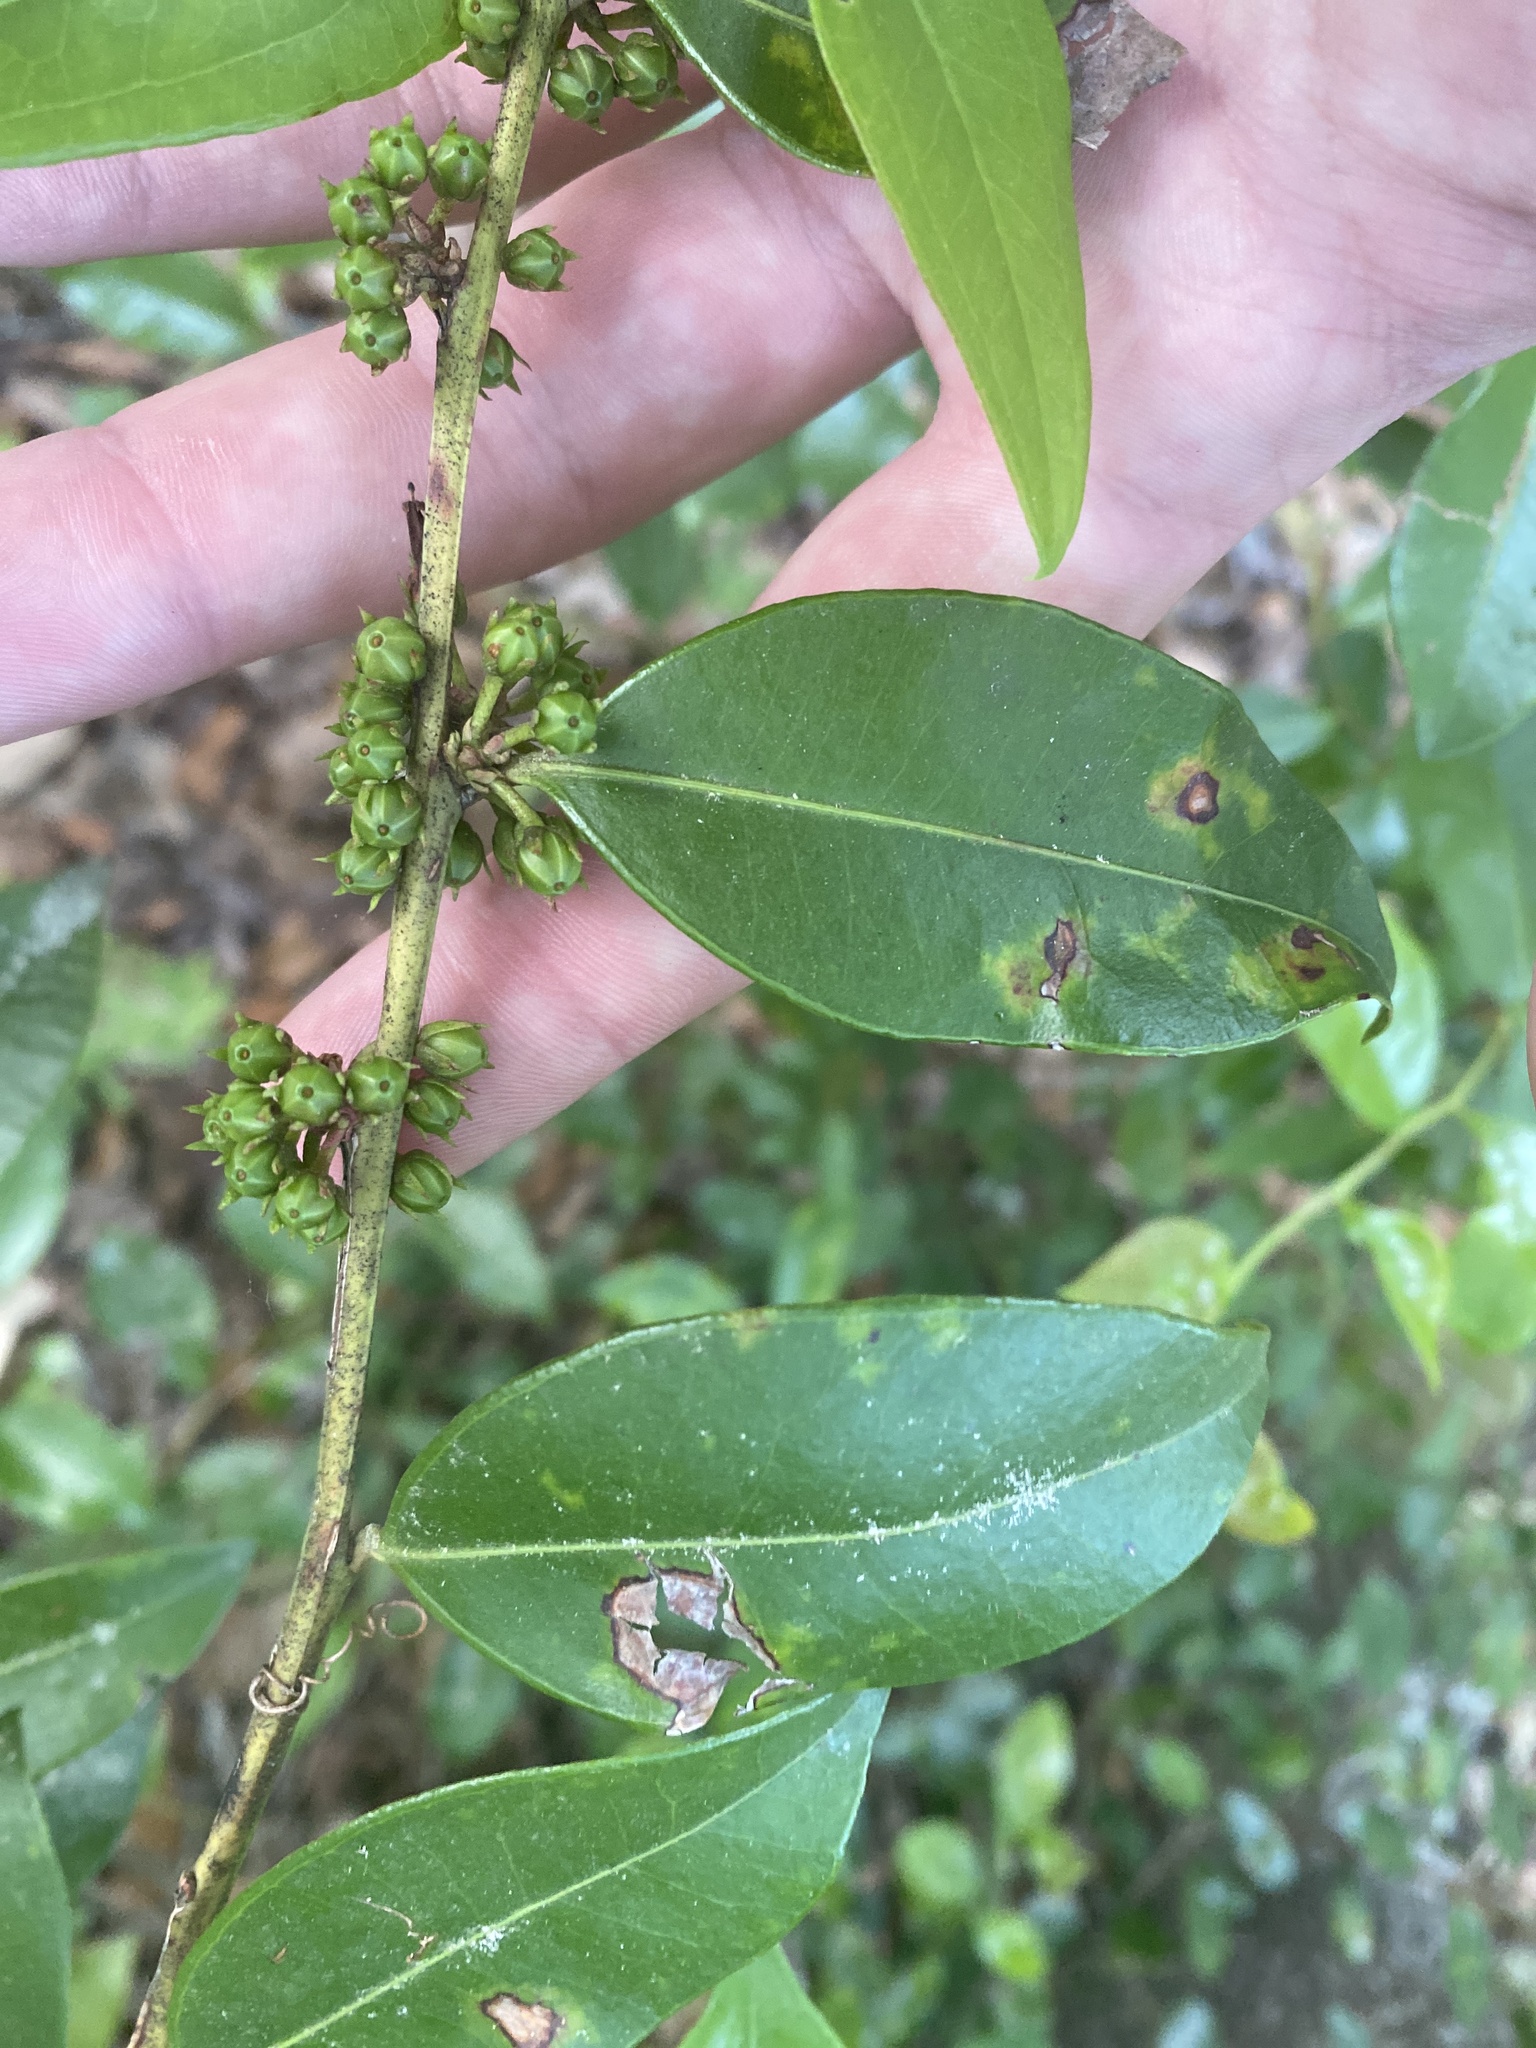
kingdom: Plantae
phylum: Tracheophyta
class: Magnoliopsida
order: Ericales
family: Ericaceae
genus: Lyonia
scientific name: Lyonia lucida
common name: Fetterbush
